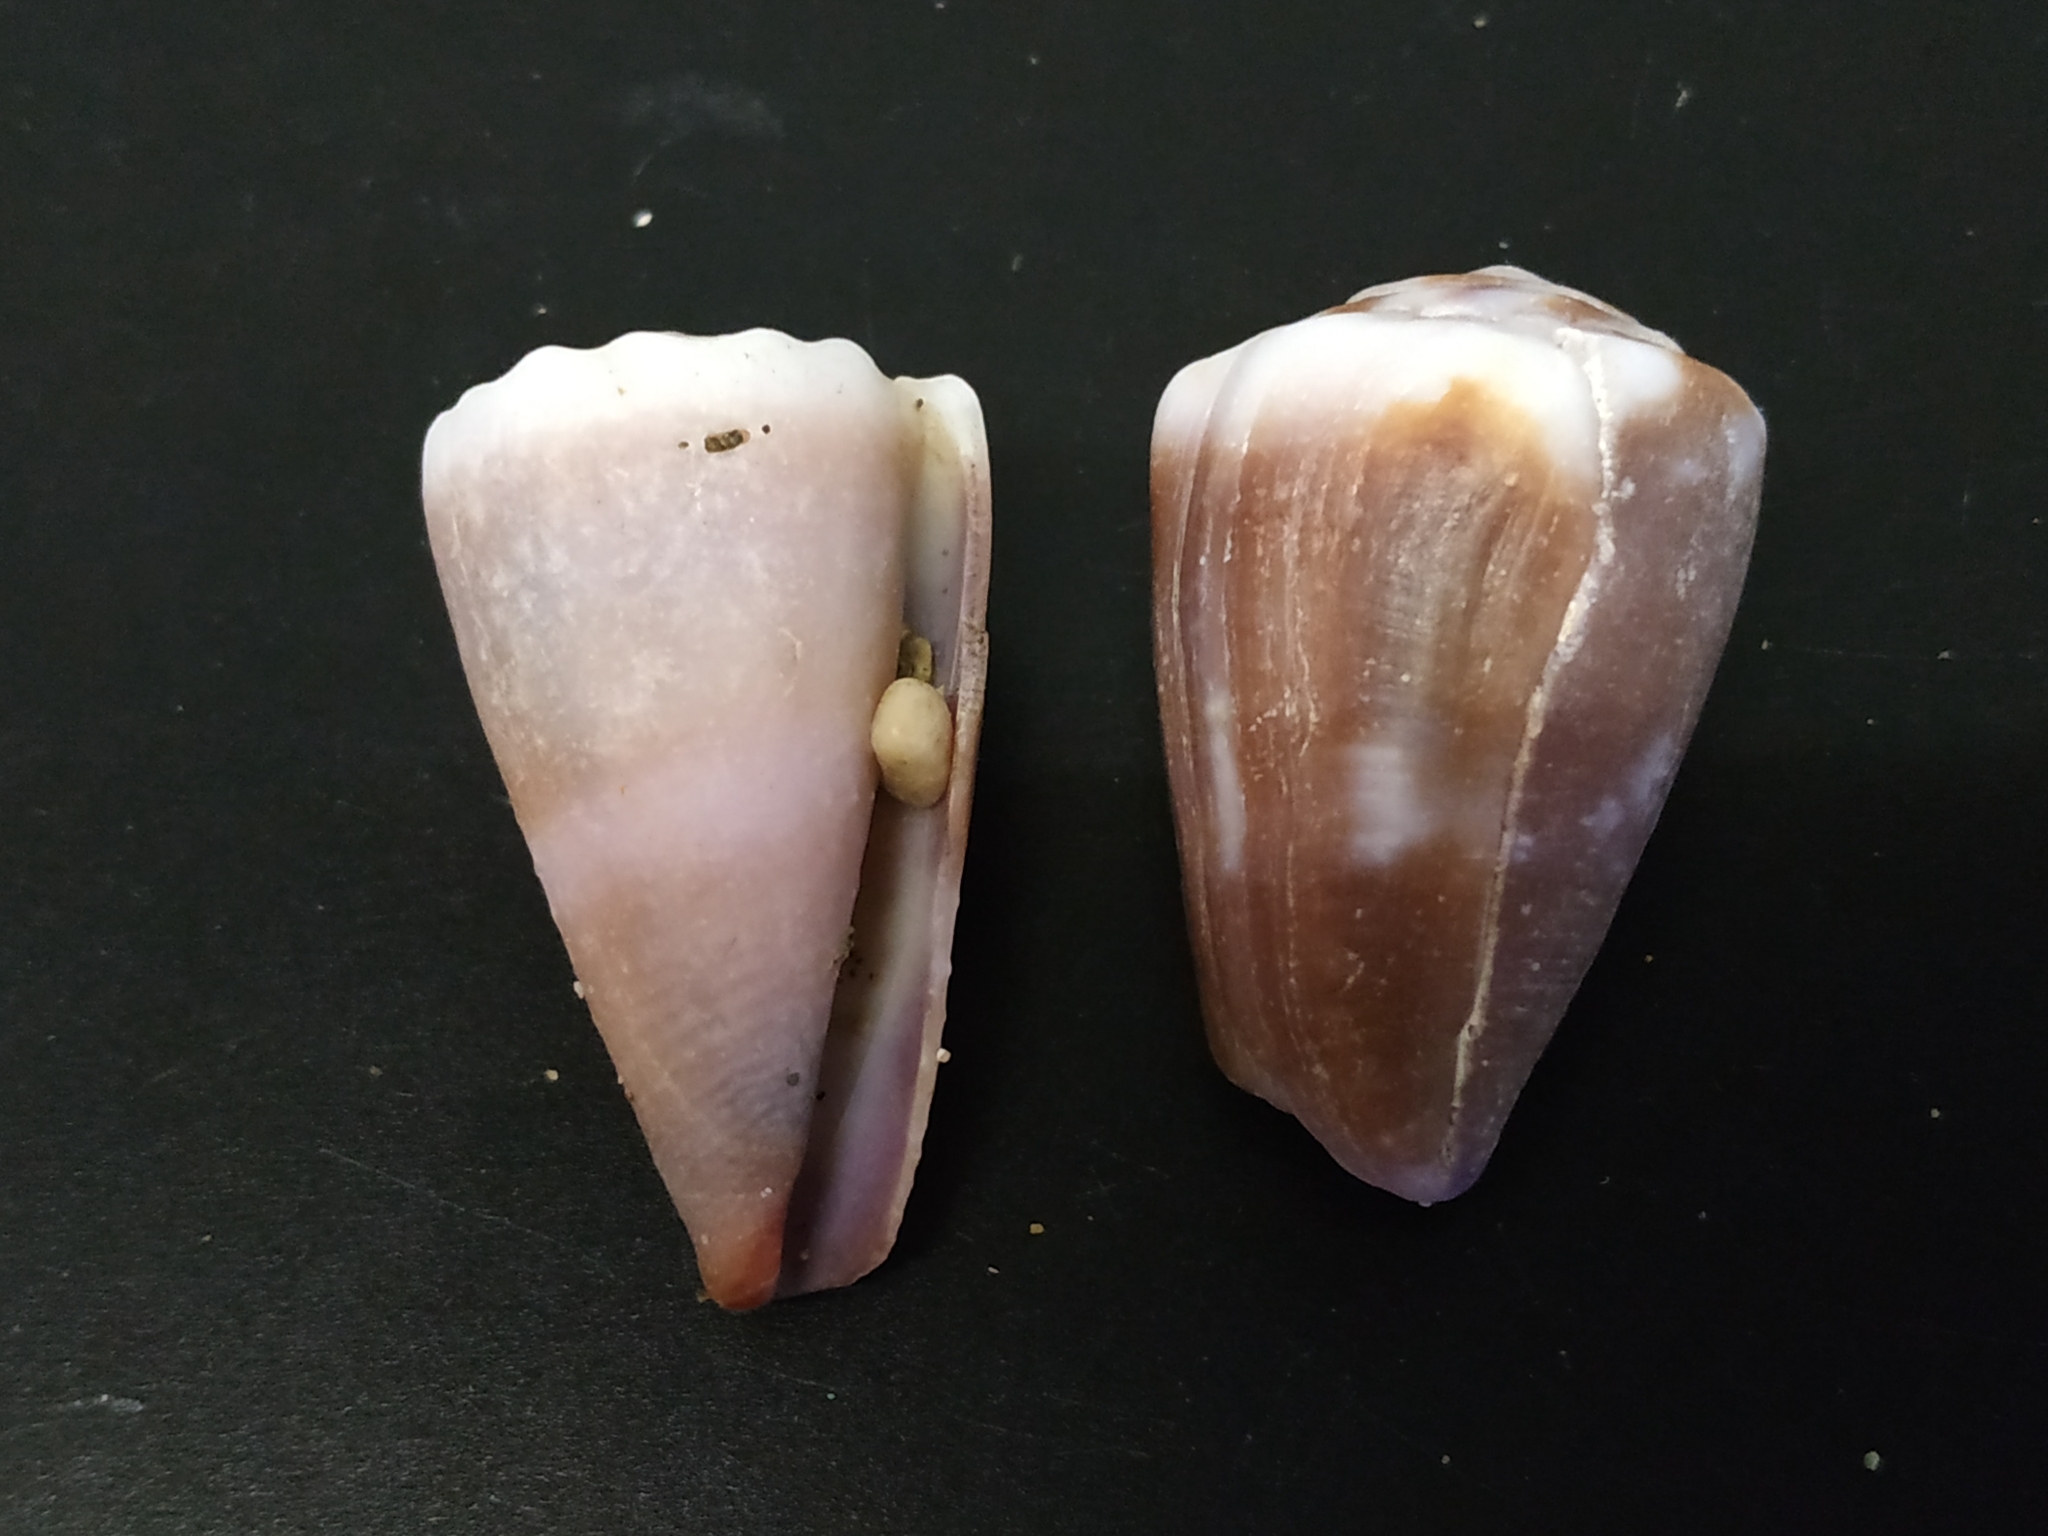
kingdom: Animalia
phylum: Mollusca
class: Gastropoda
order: Neogastropoda
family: Conidae
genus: Conus
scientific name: Conus rattus
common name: Rat cone
